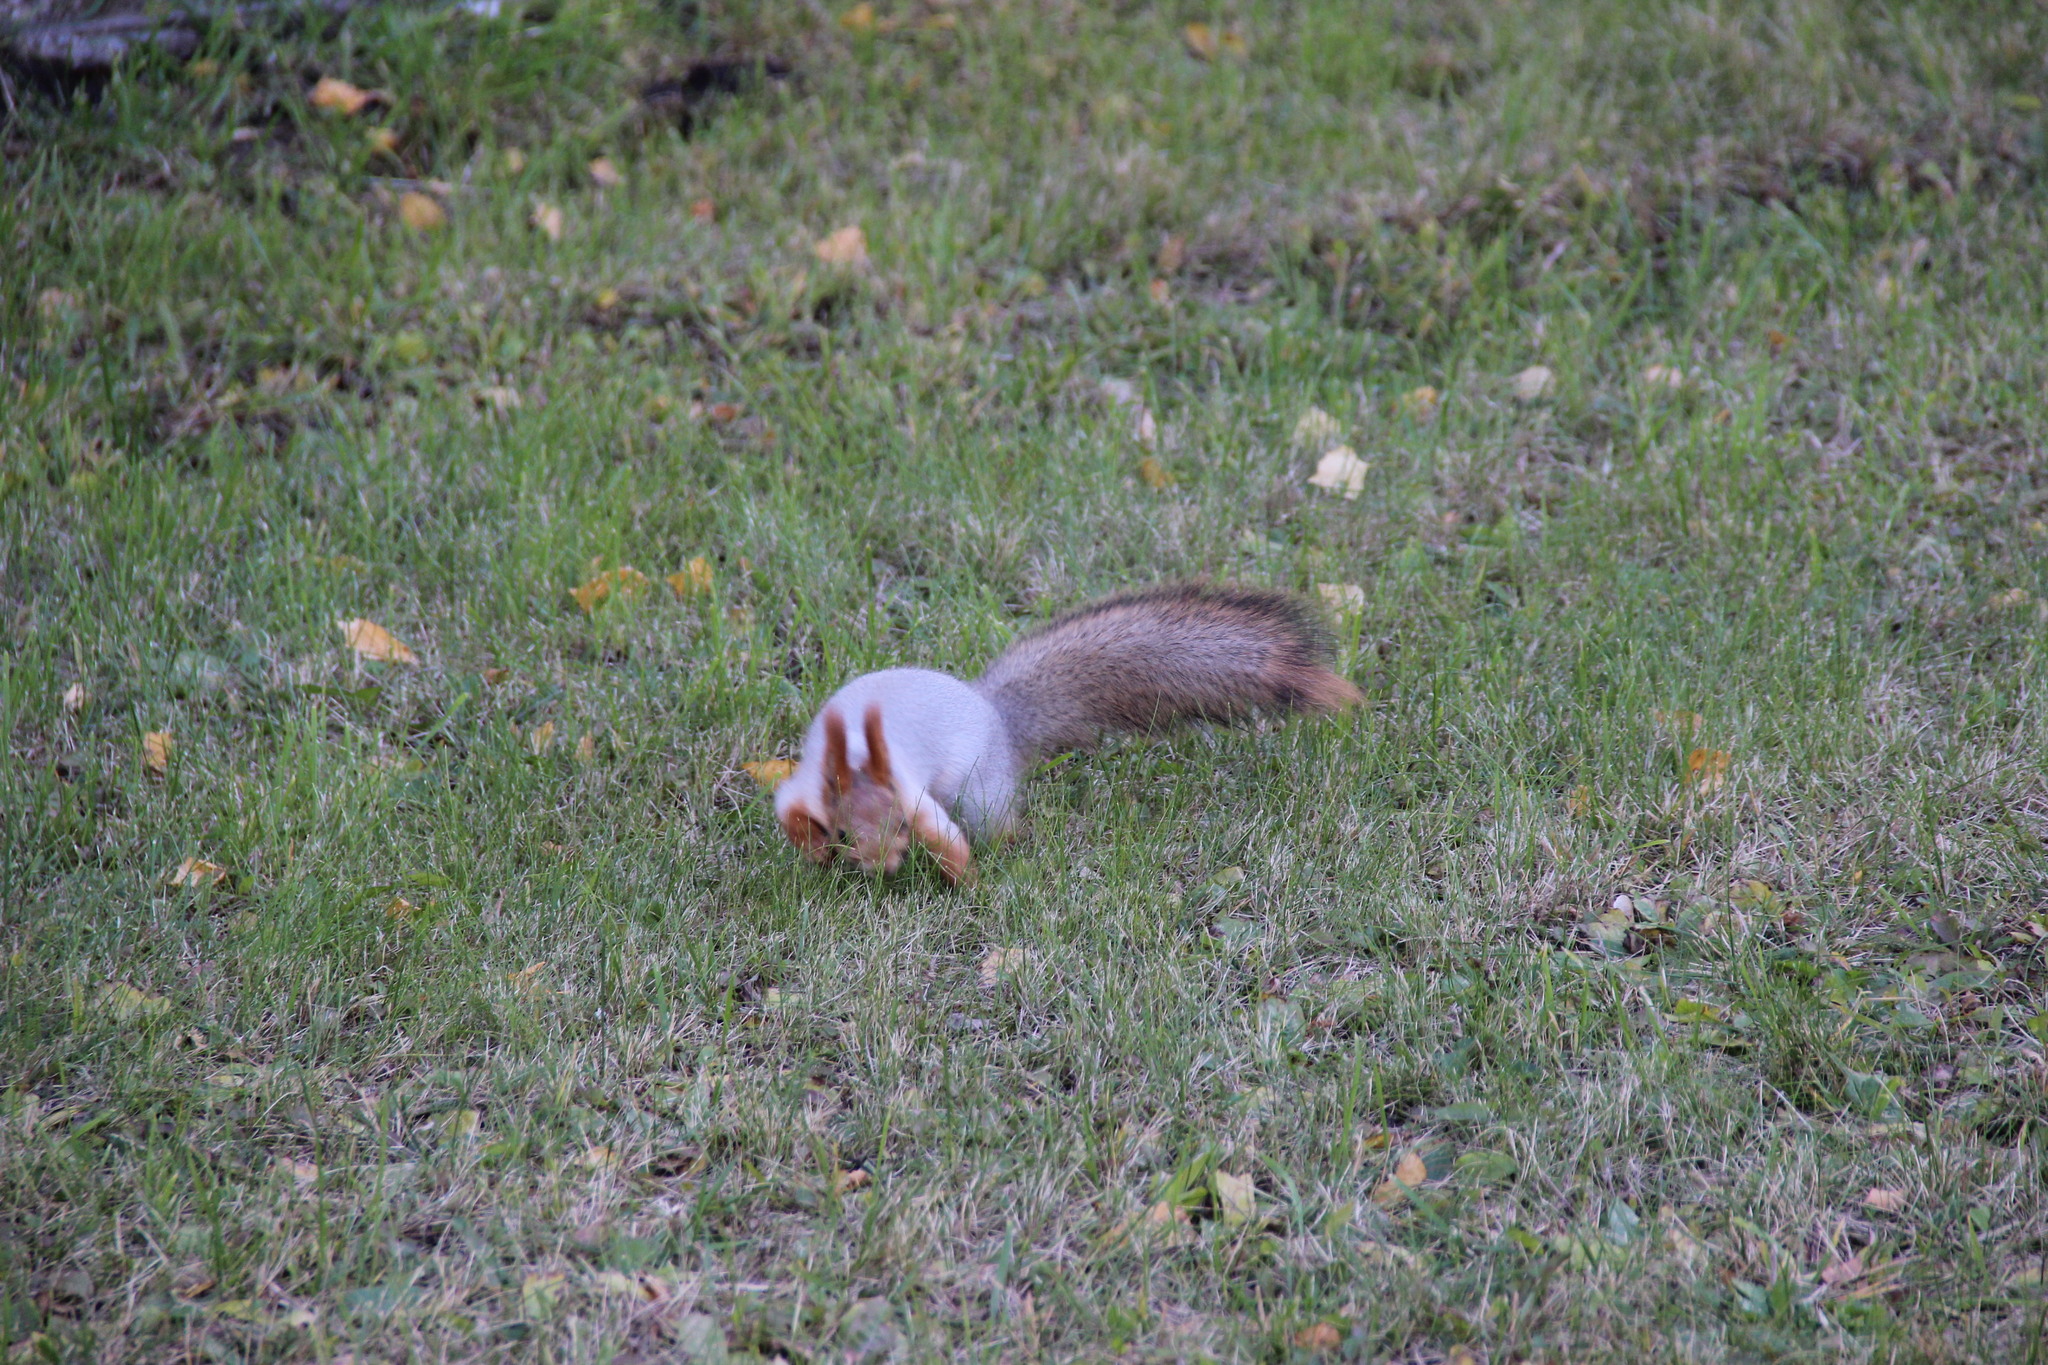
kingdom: Animalia
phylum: Chordata
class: Mammalia
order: Rodentia
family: Sciuridae
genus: Sciurus
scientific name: Sciurus vulgaris
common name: Eurasian red squirrel
